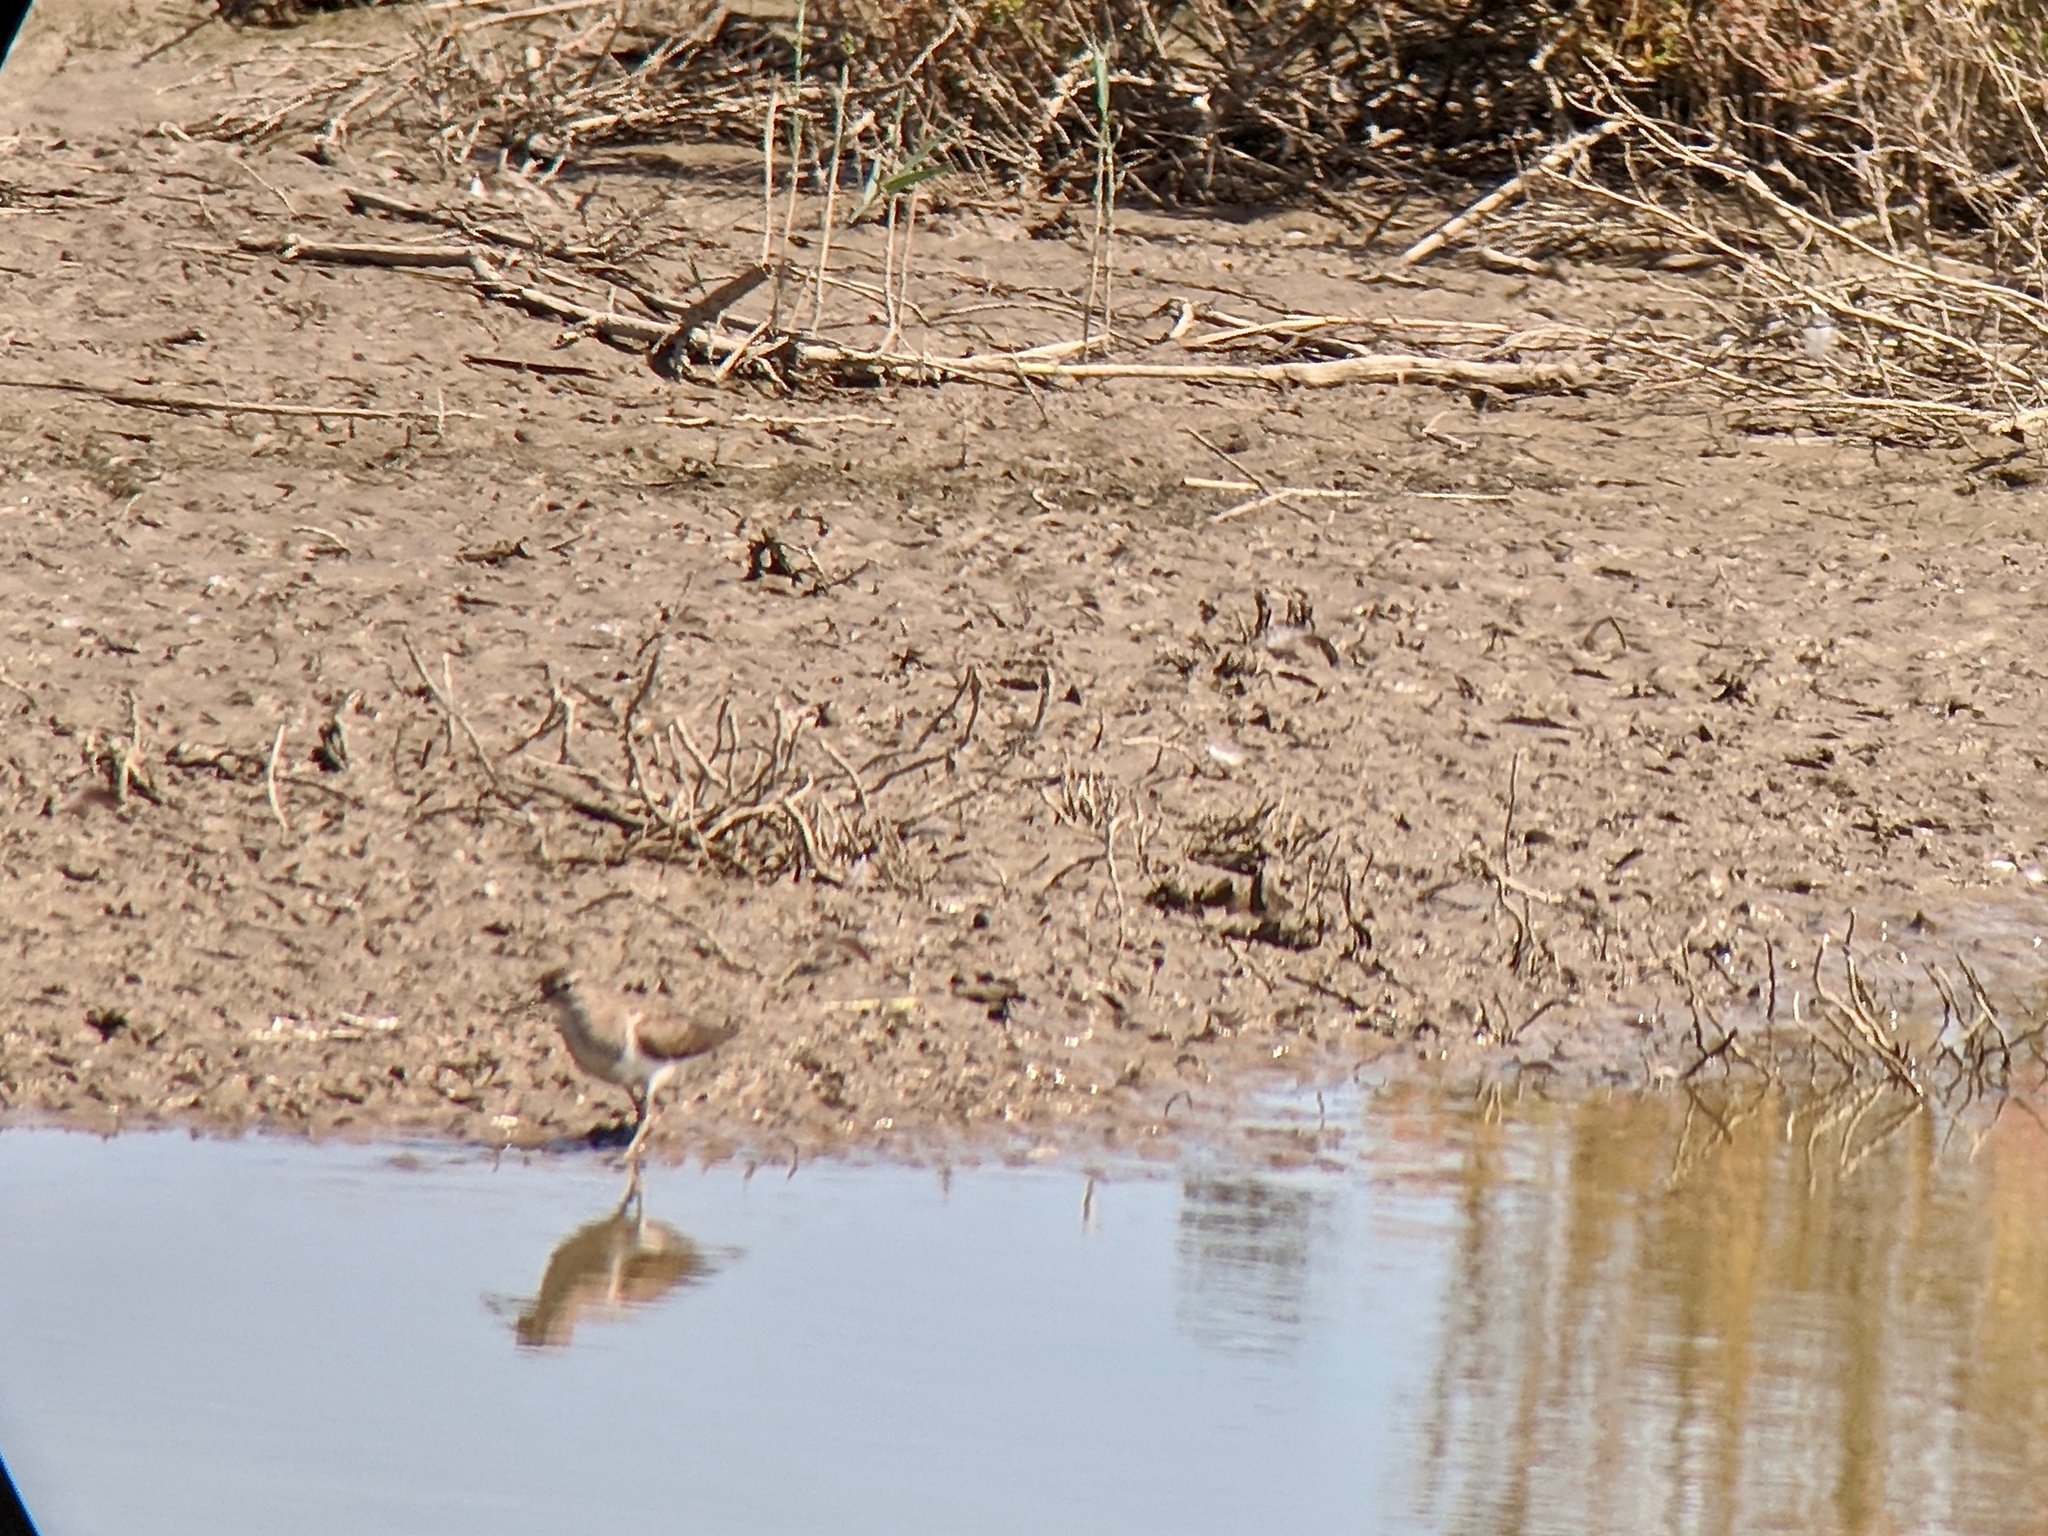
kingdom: Animalia
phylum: Chordata
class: Aves
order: Charadriiformes
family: Scolopacidae
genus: Actitis
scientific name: Actitis hypoleucos
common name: Common sandpiper
